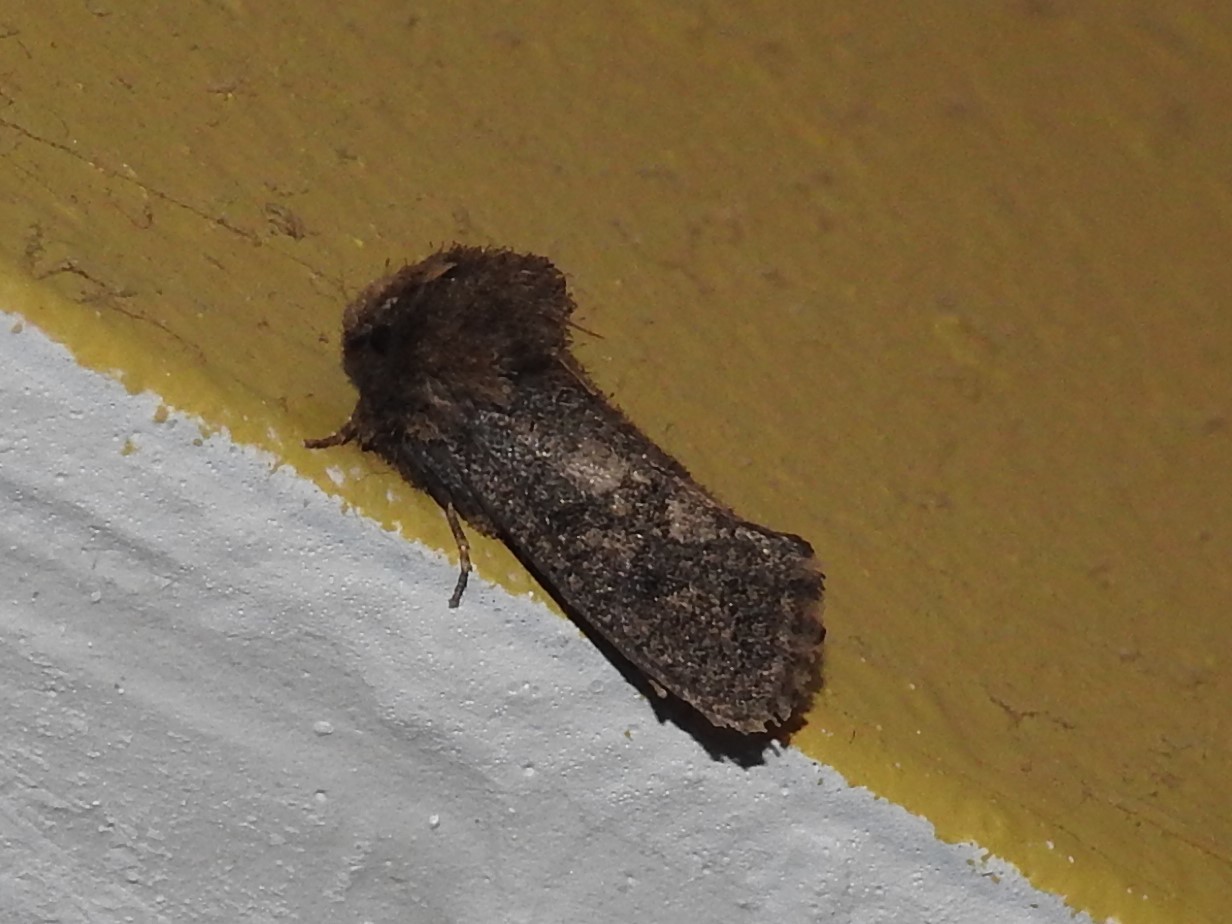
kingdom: Animalia
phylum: Arthropoda
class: Insecta
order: Lepidoptera
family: Tineidae
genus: Acrolophus
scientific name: Acrolophus arcanella
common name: Arcane grass tubeworm moth
